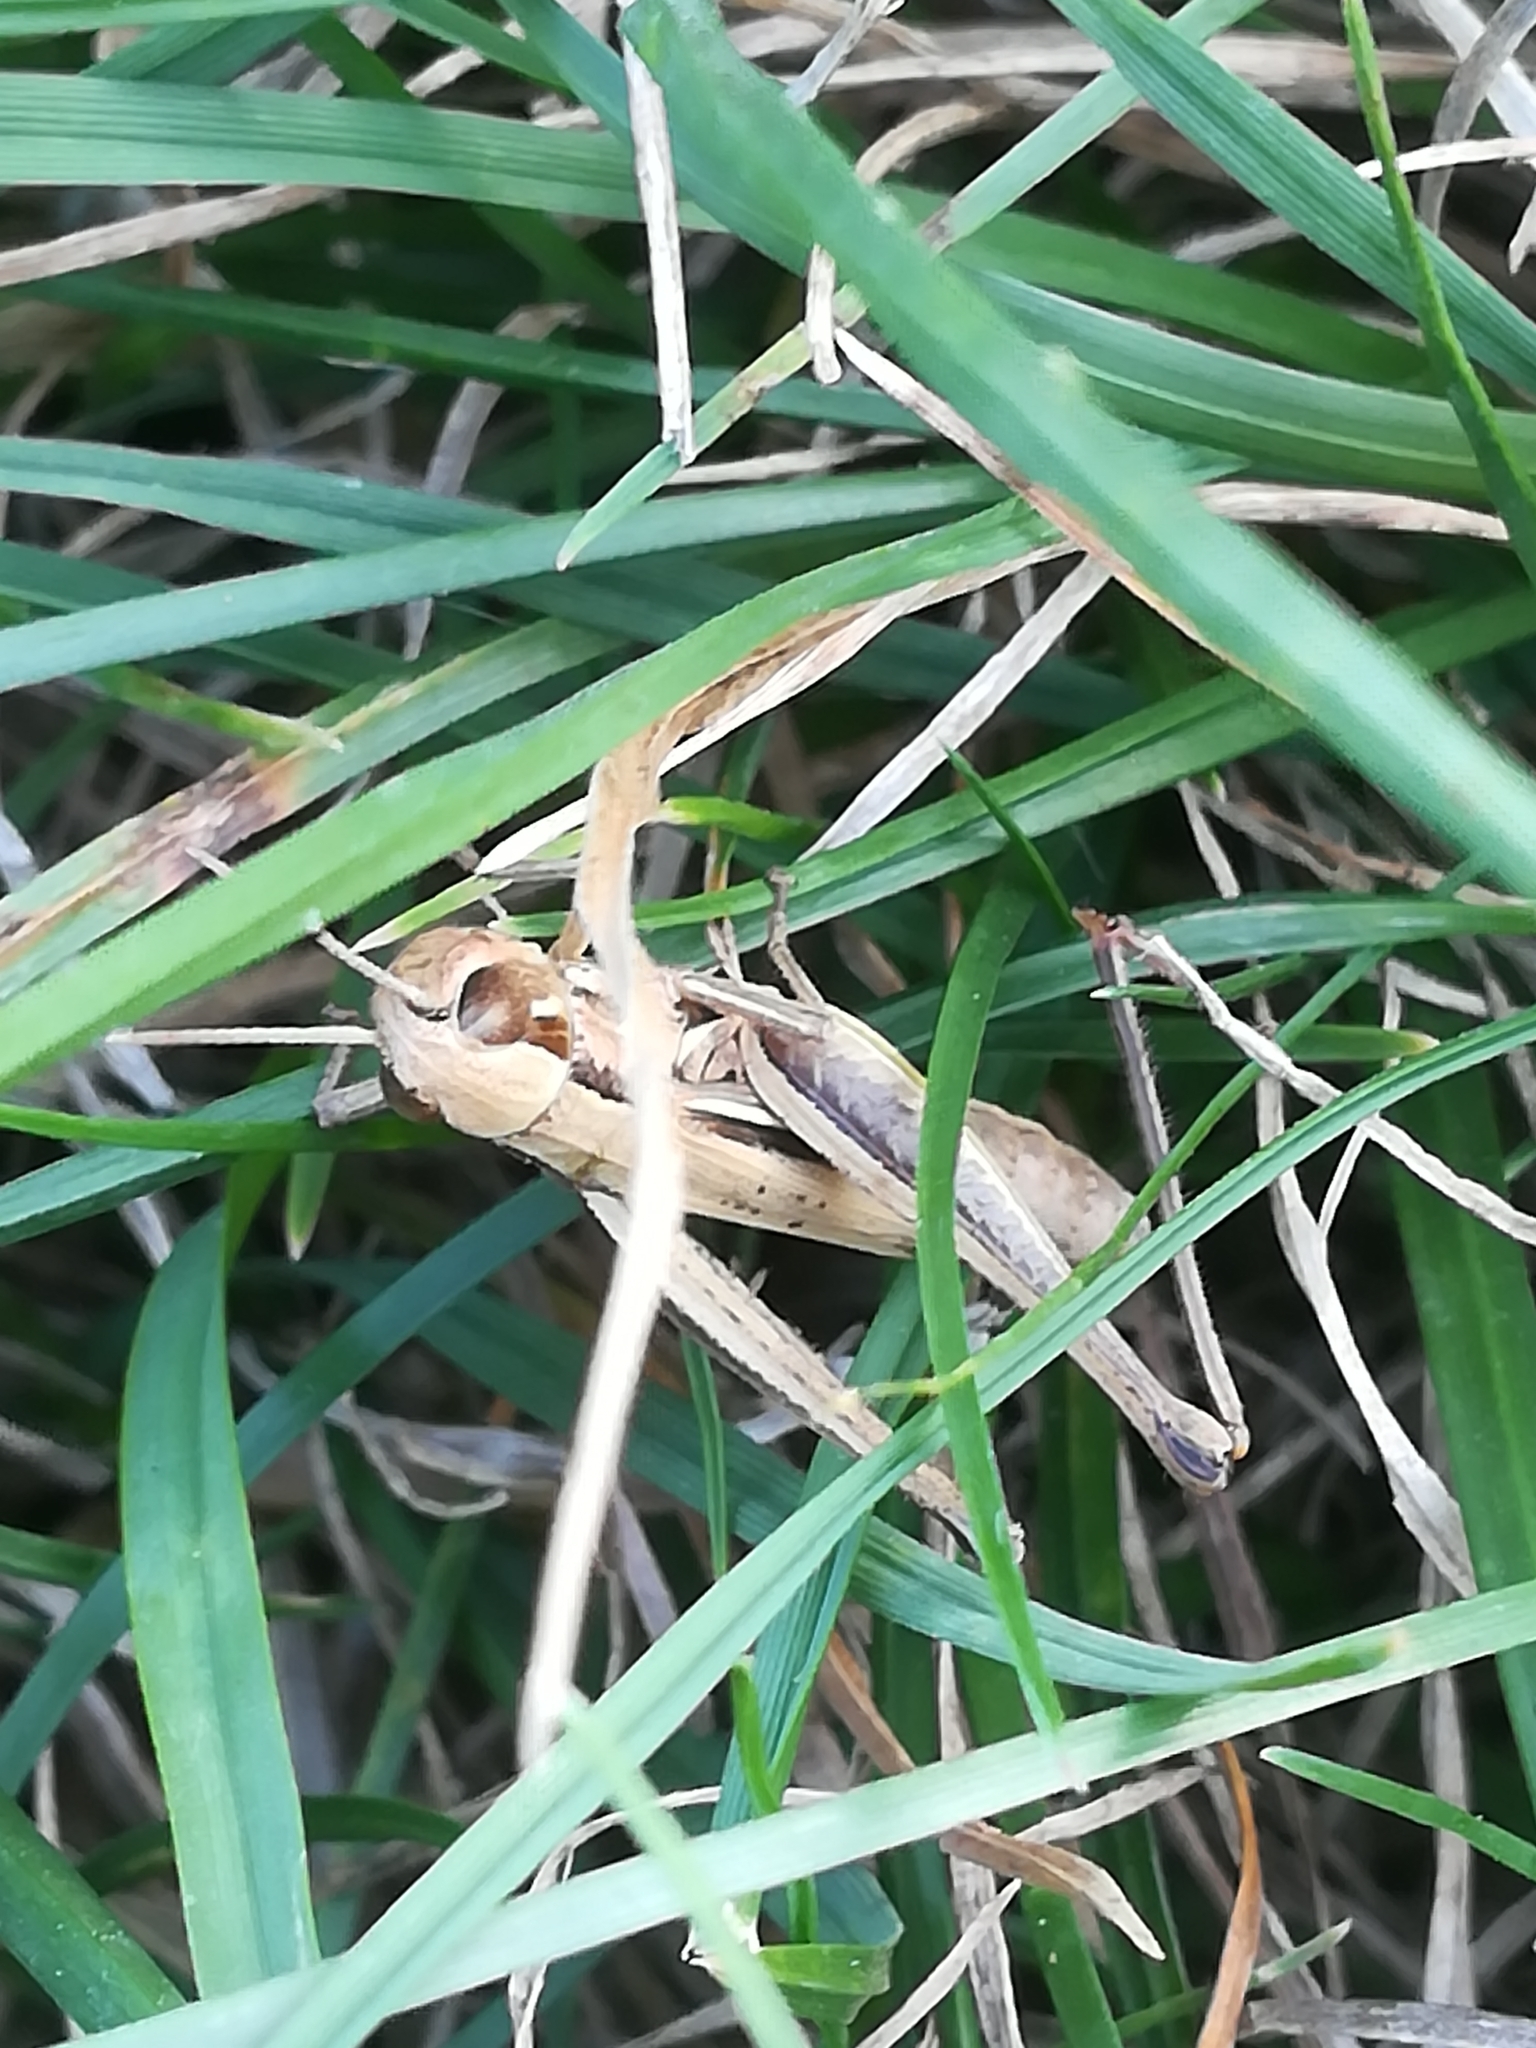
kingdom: Animalia
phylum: Arthropoda
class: Insecta
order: Orthoptera
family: Acrididae
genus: Euchorthippus
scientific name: Euchorthippus declivus
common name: Common straw grasshopper
